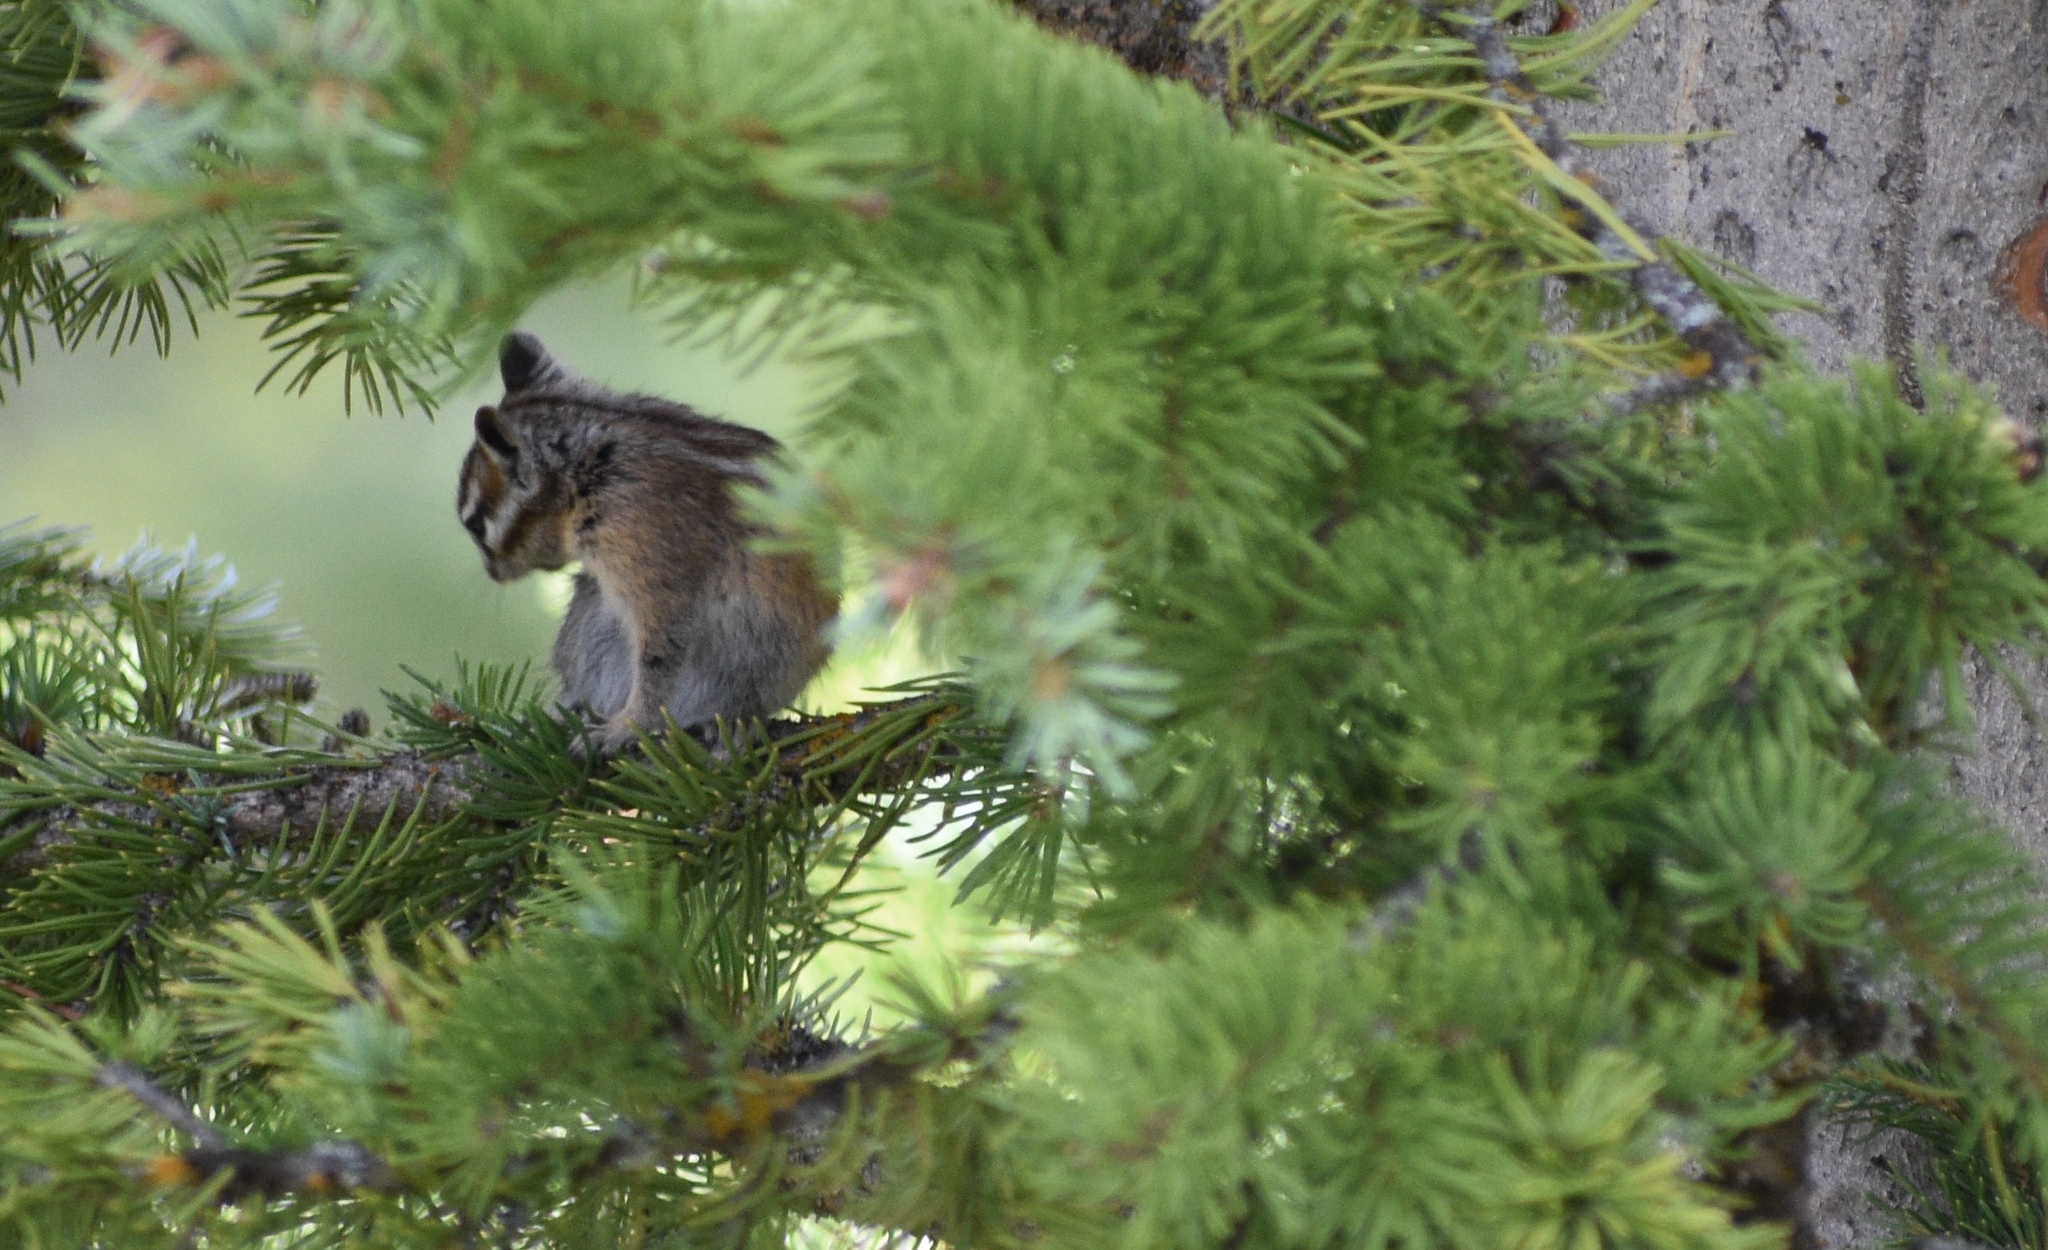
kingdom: Animalia
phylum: Chordata
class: Mammalia
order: Rodentia
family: Sciuridae
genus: Tamias
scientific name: Tamias minimus
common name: Least chipmunk
